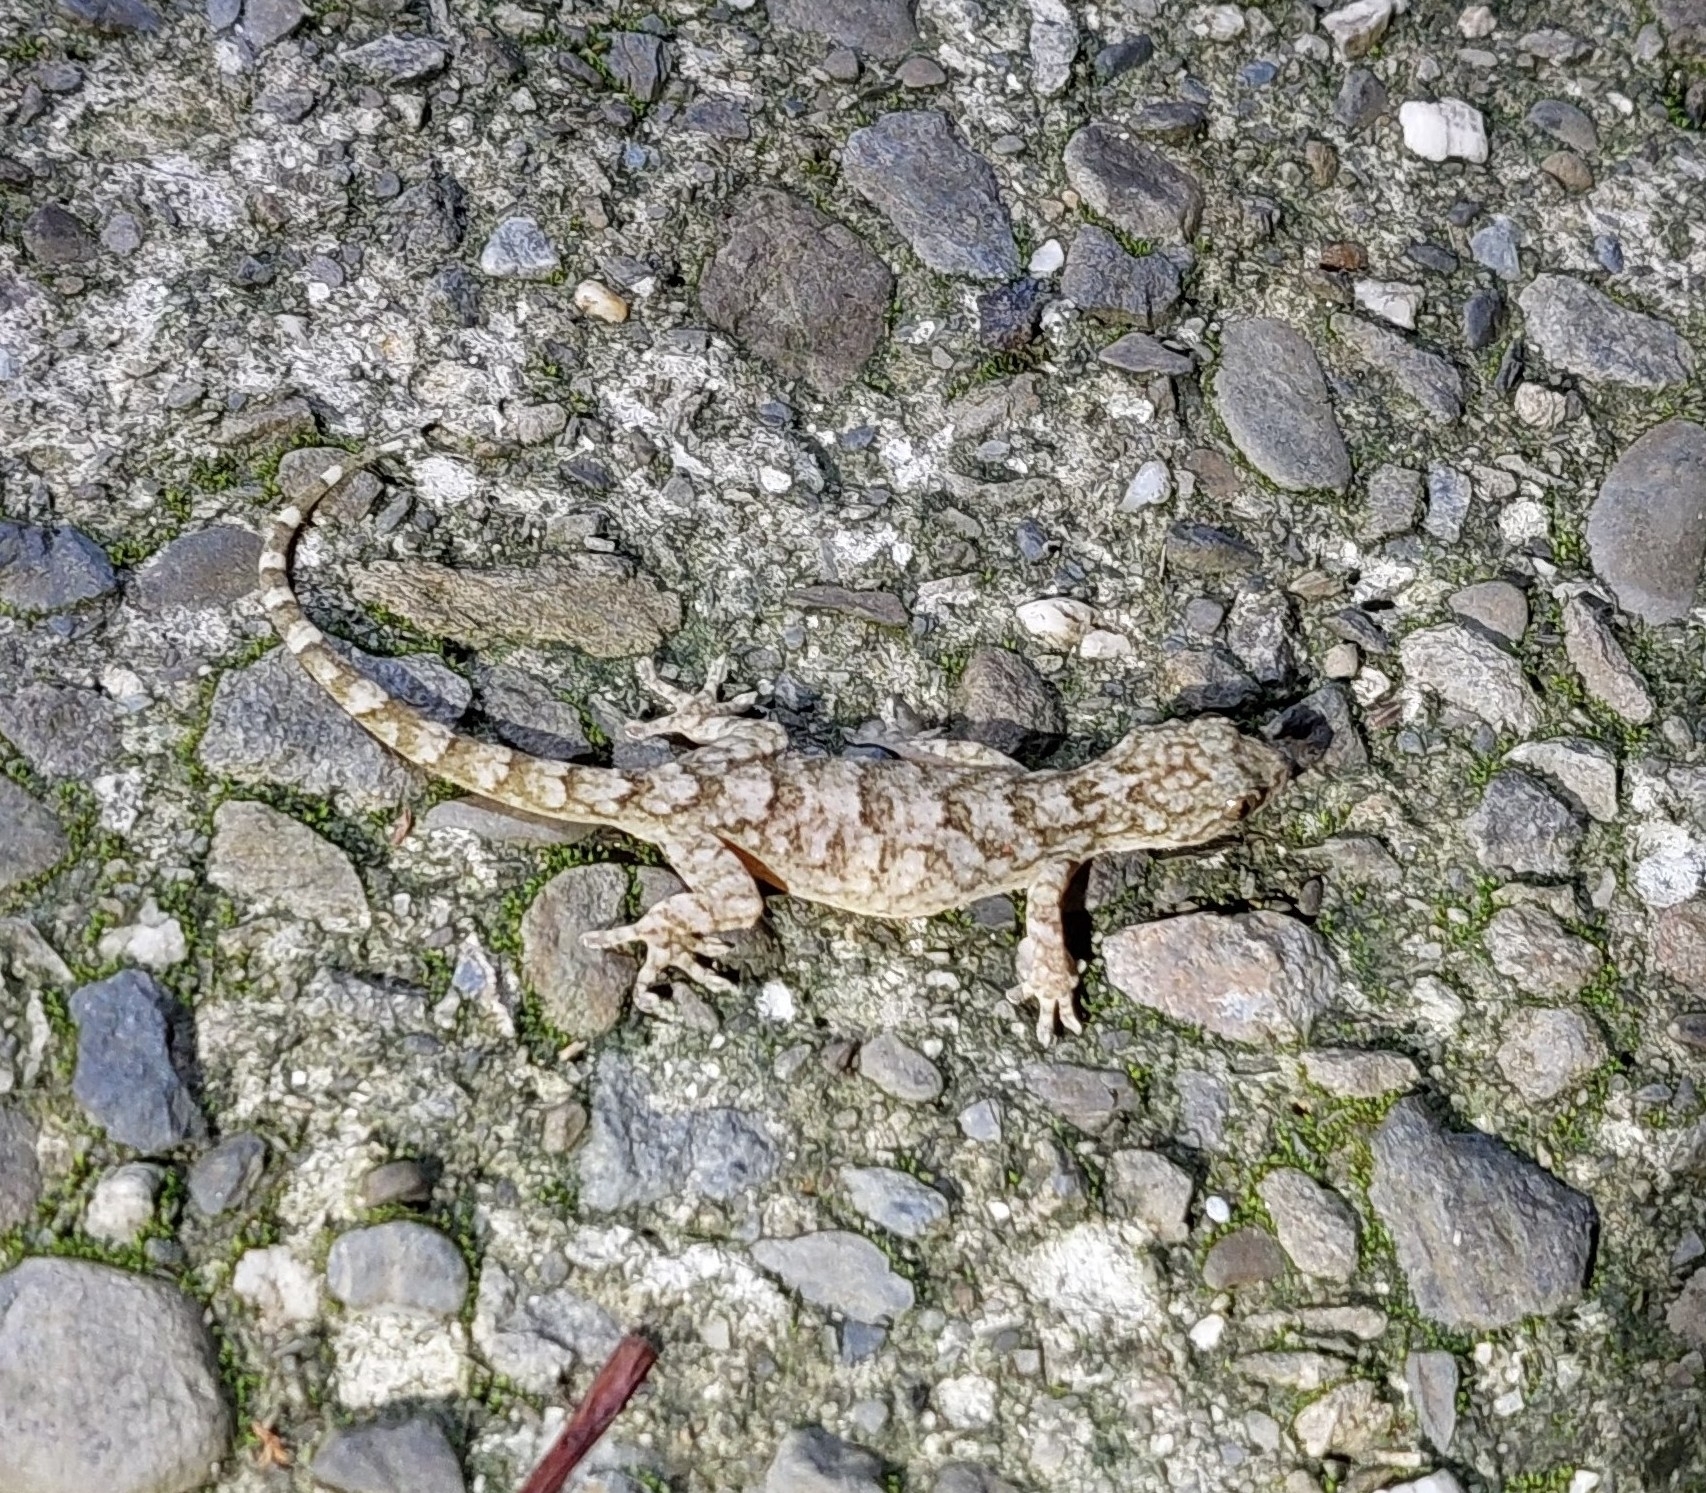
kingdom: Animalia
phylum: Chordata
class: Squamata
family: Gekkonidae
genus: Gekko
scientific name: Gekko hokouensis
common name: Kwangsi gecko
